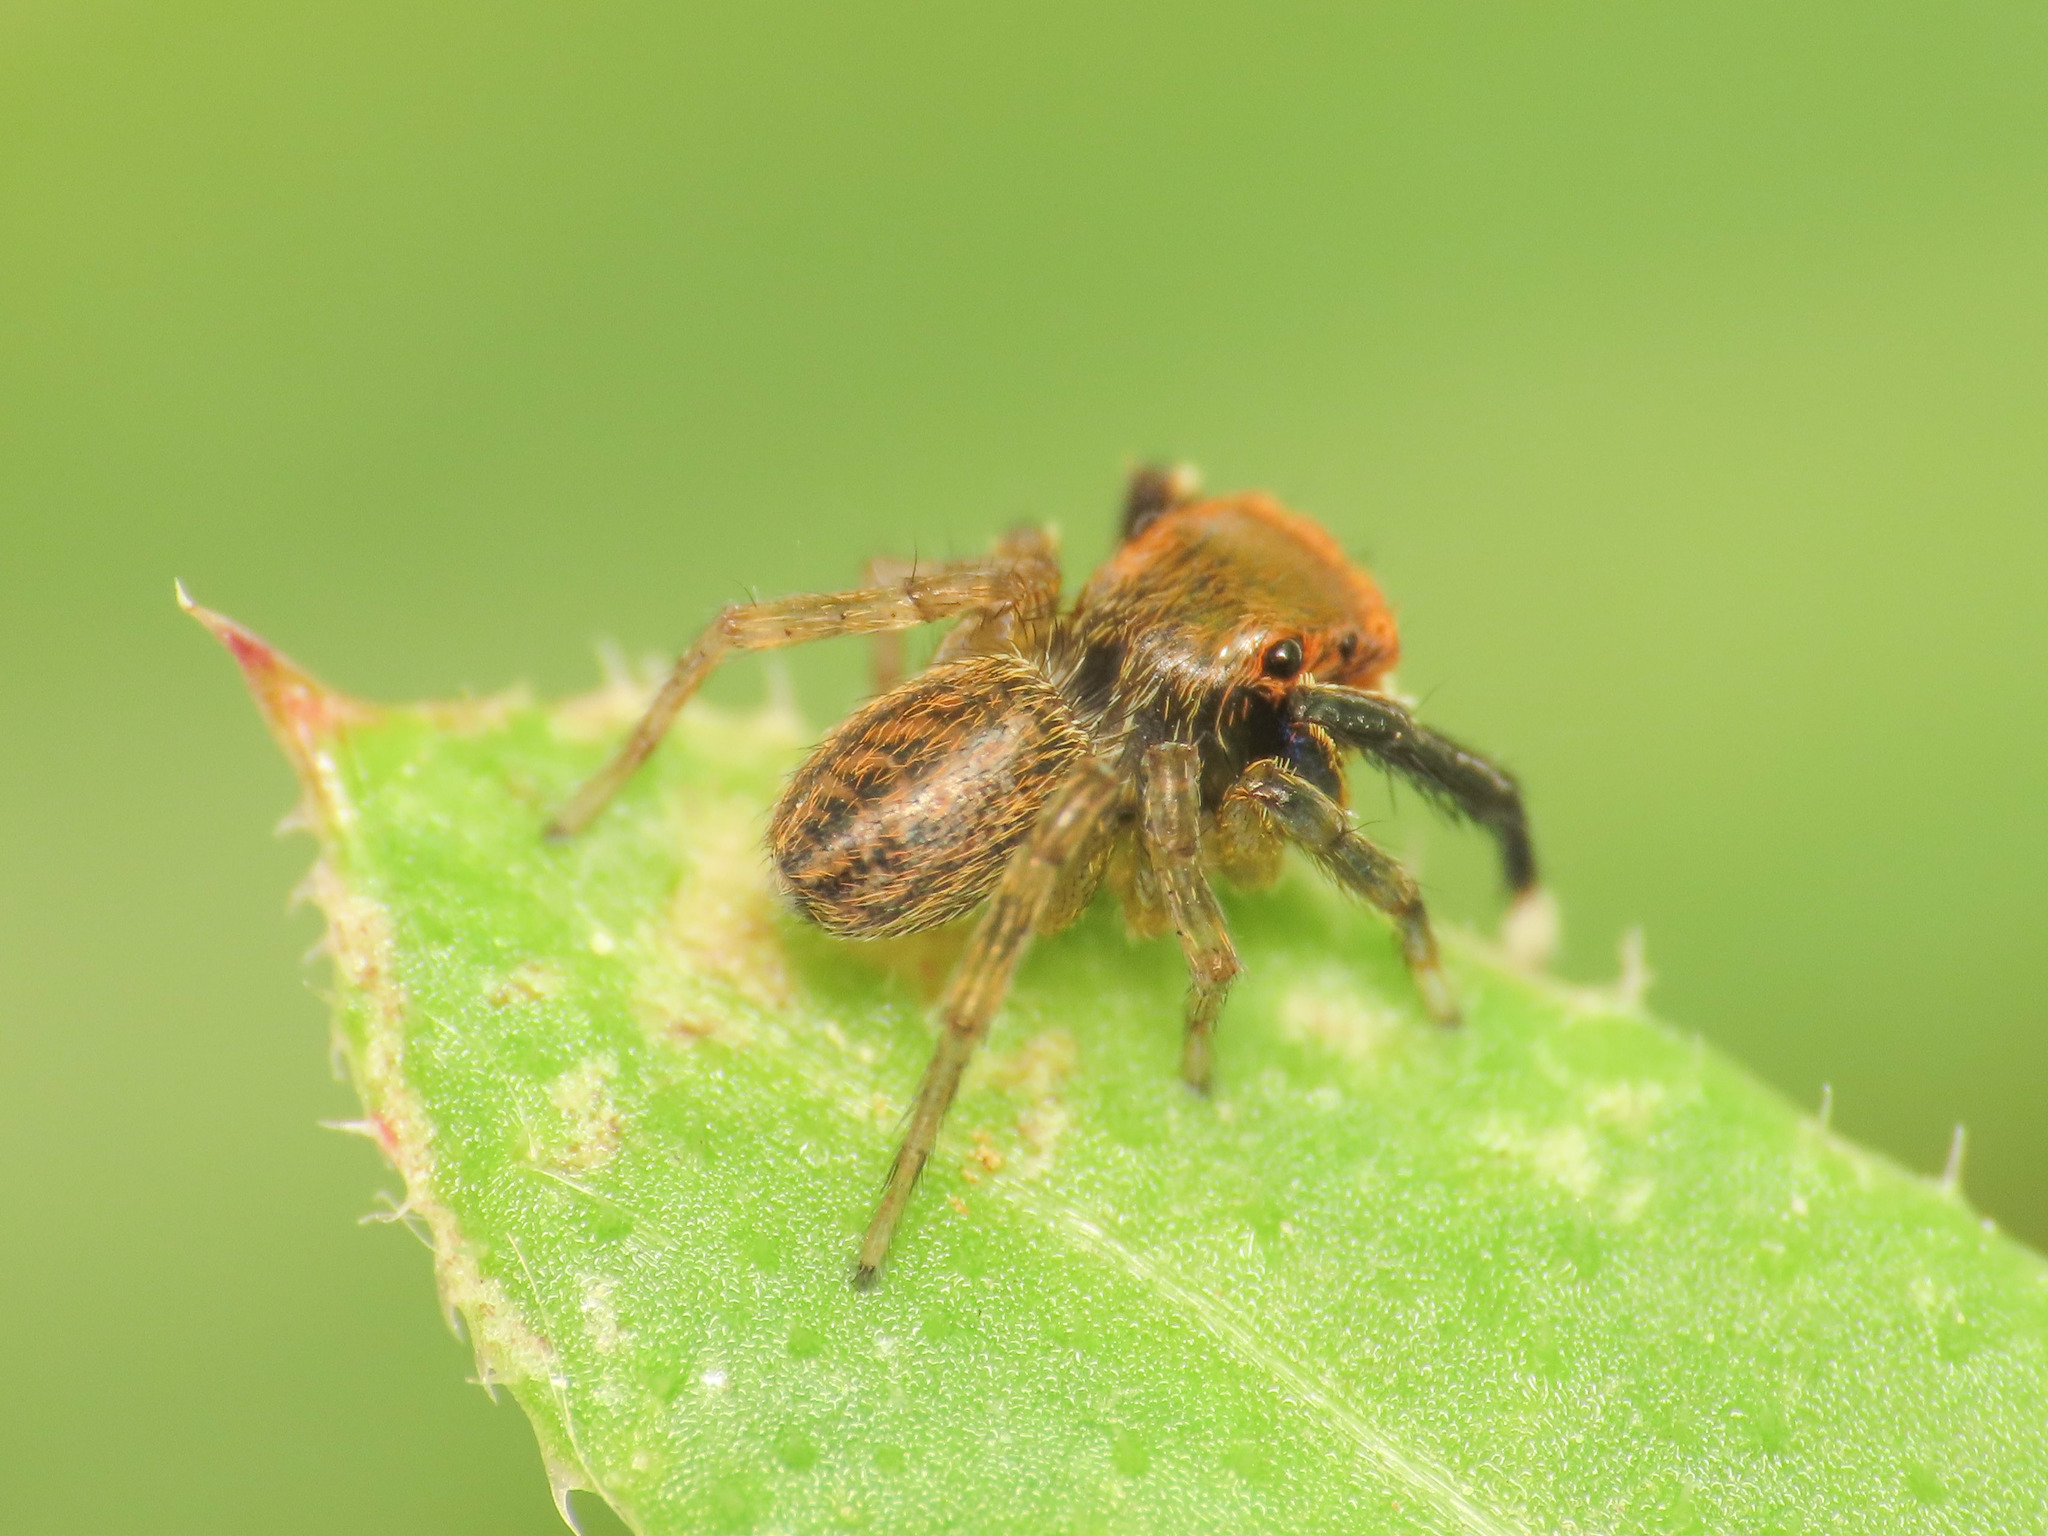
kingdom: Animalia
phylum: Arthropoda
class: Arachnida
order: Araneae
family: Salticidae
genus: Euophrys
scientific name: Euophrys frontalis
